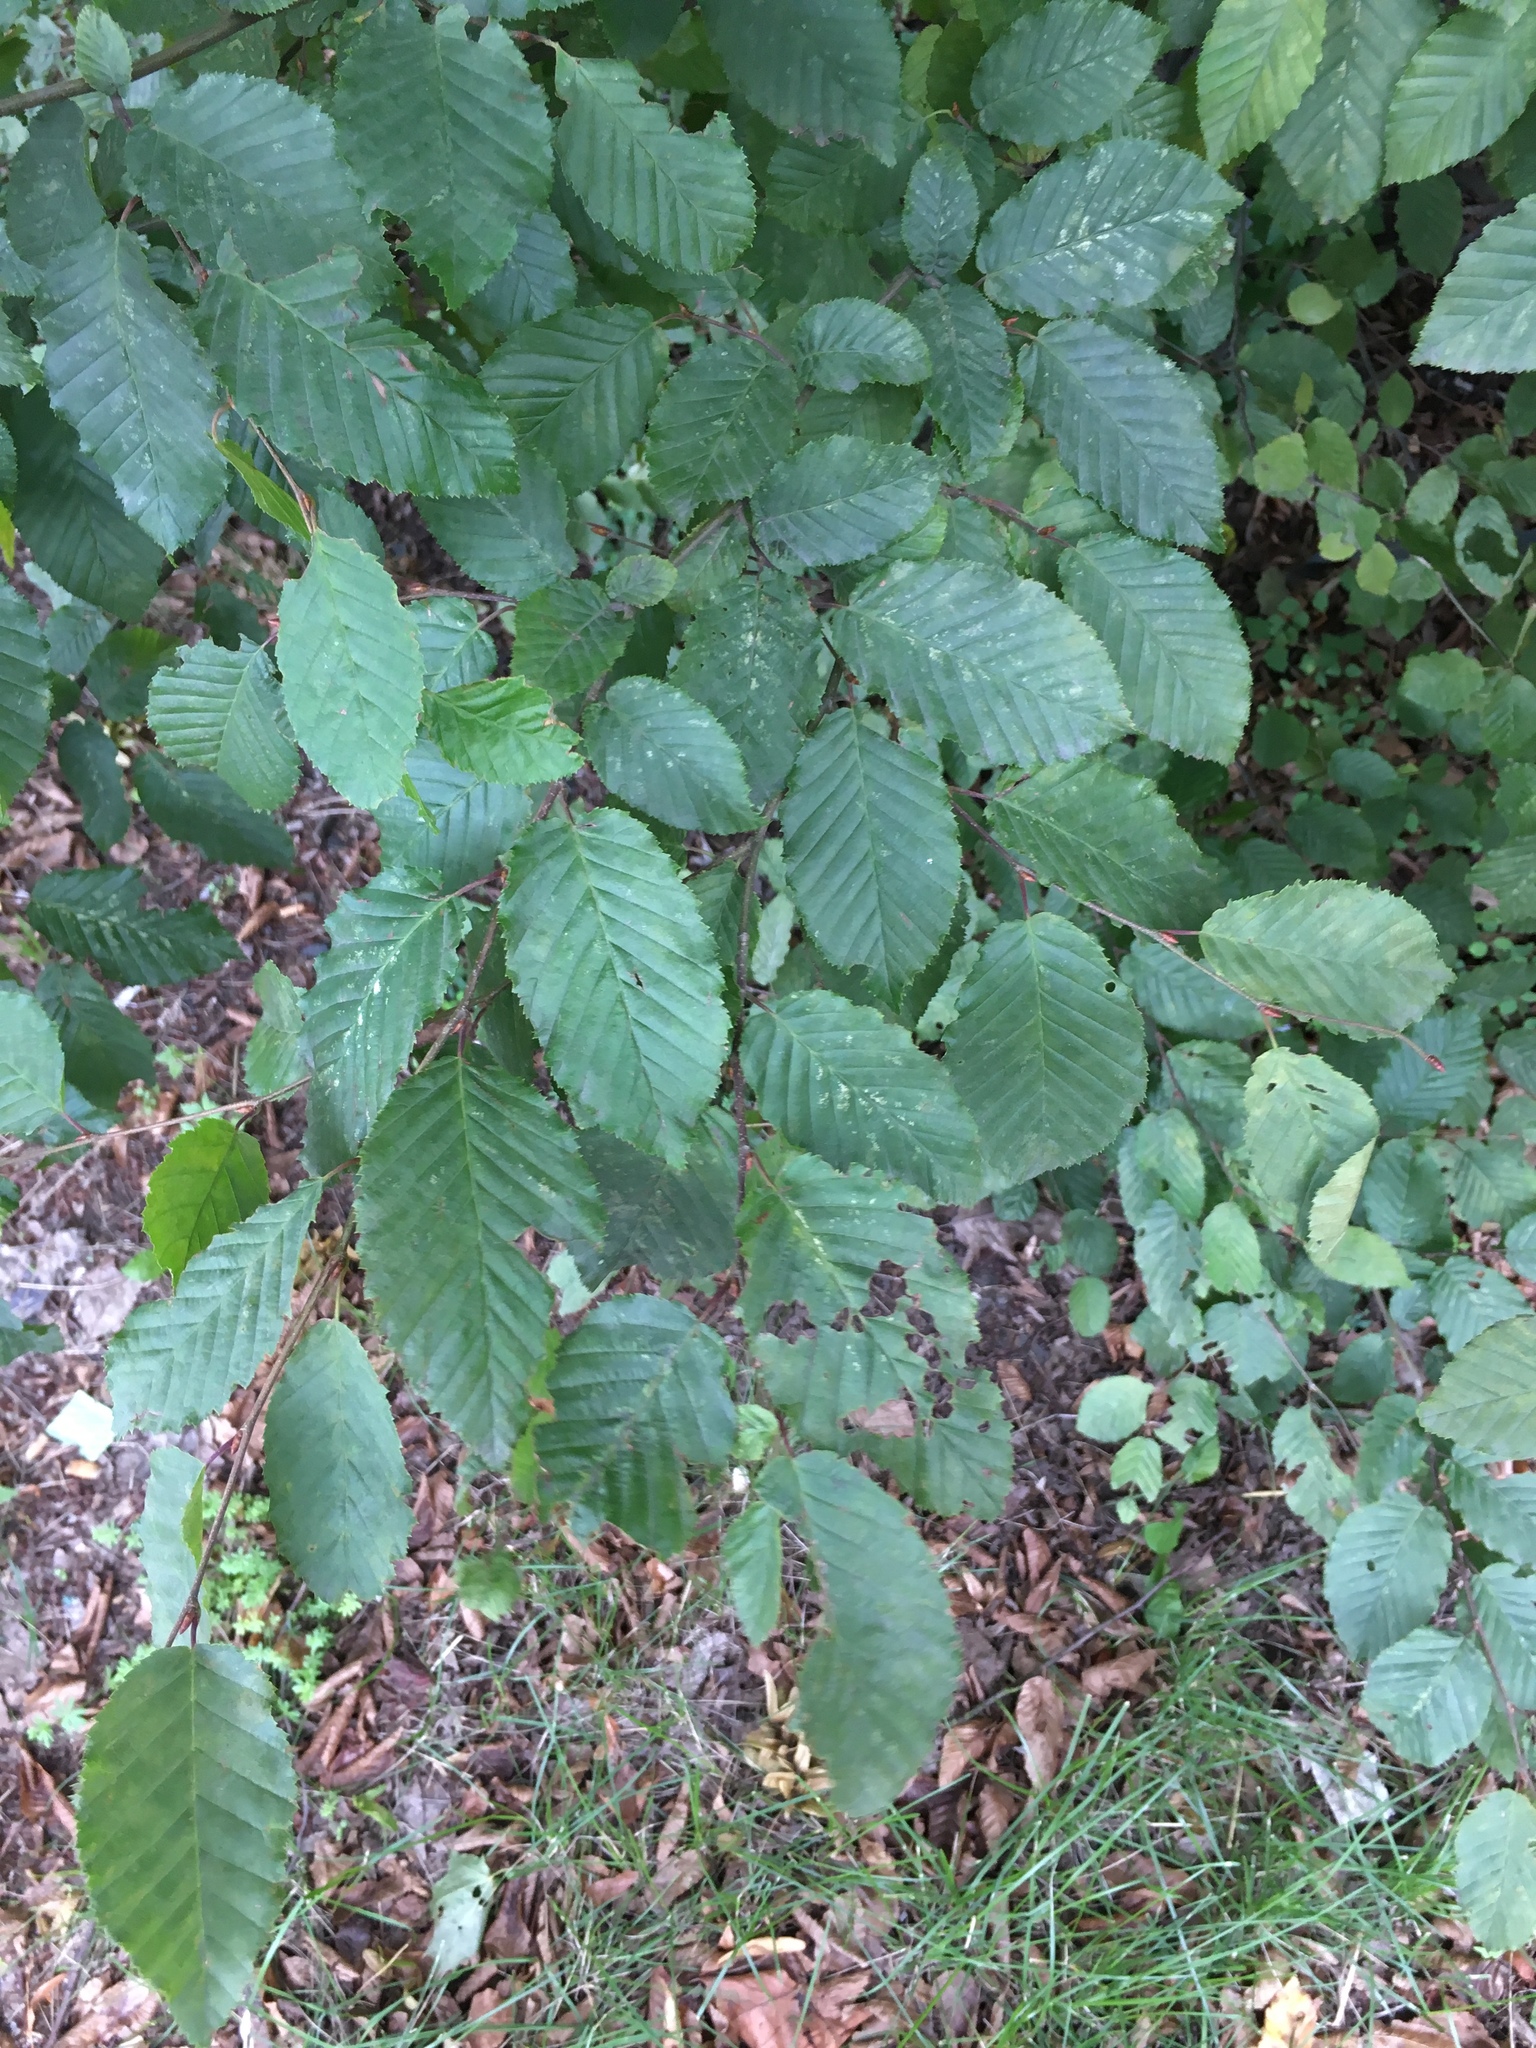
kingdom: Plantae
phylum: Tracheophyta
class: Magnoliopsida
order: Fagales
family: Betulaceae
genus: Carpinus
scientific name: Carpinus betulus
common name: Hornbeam
